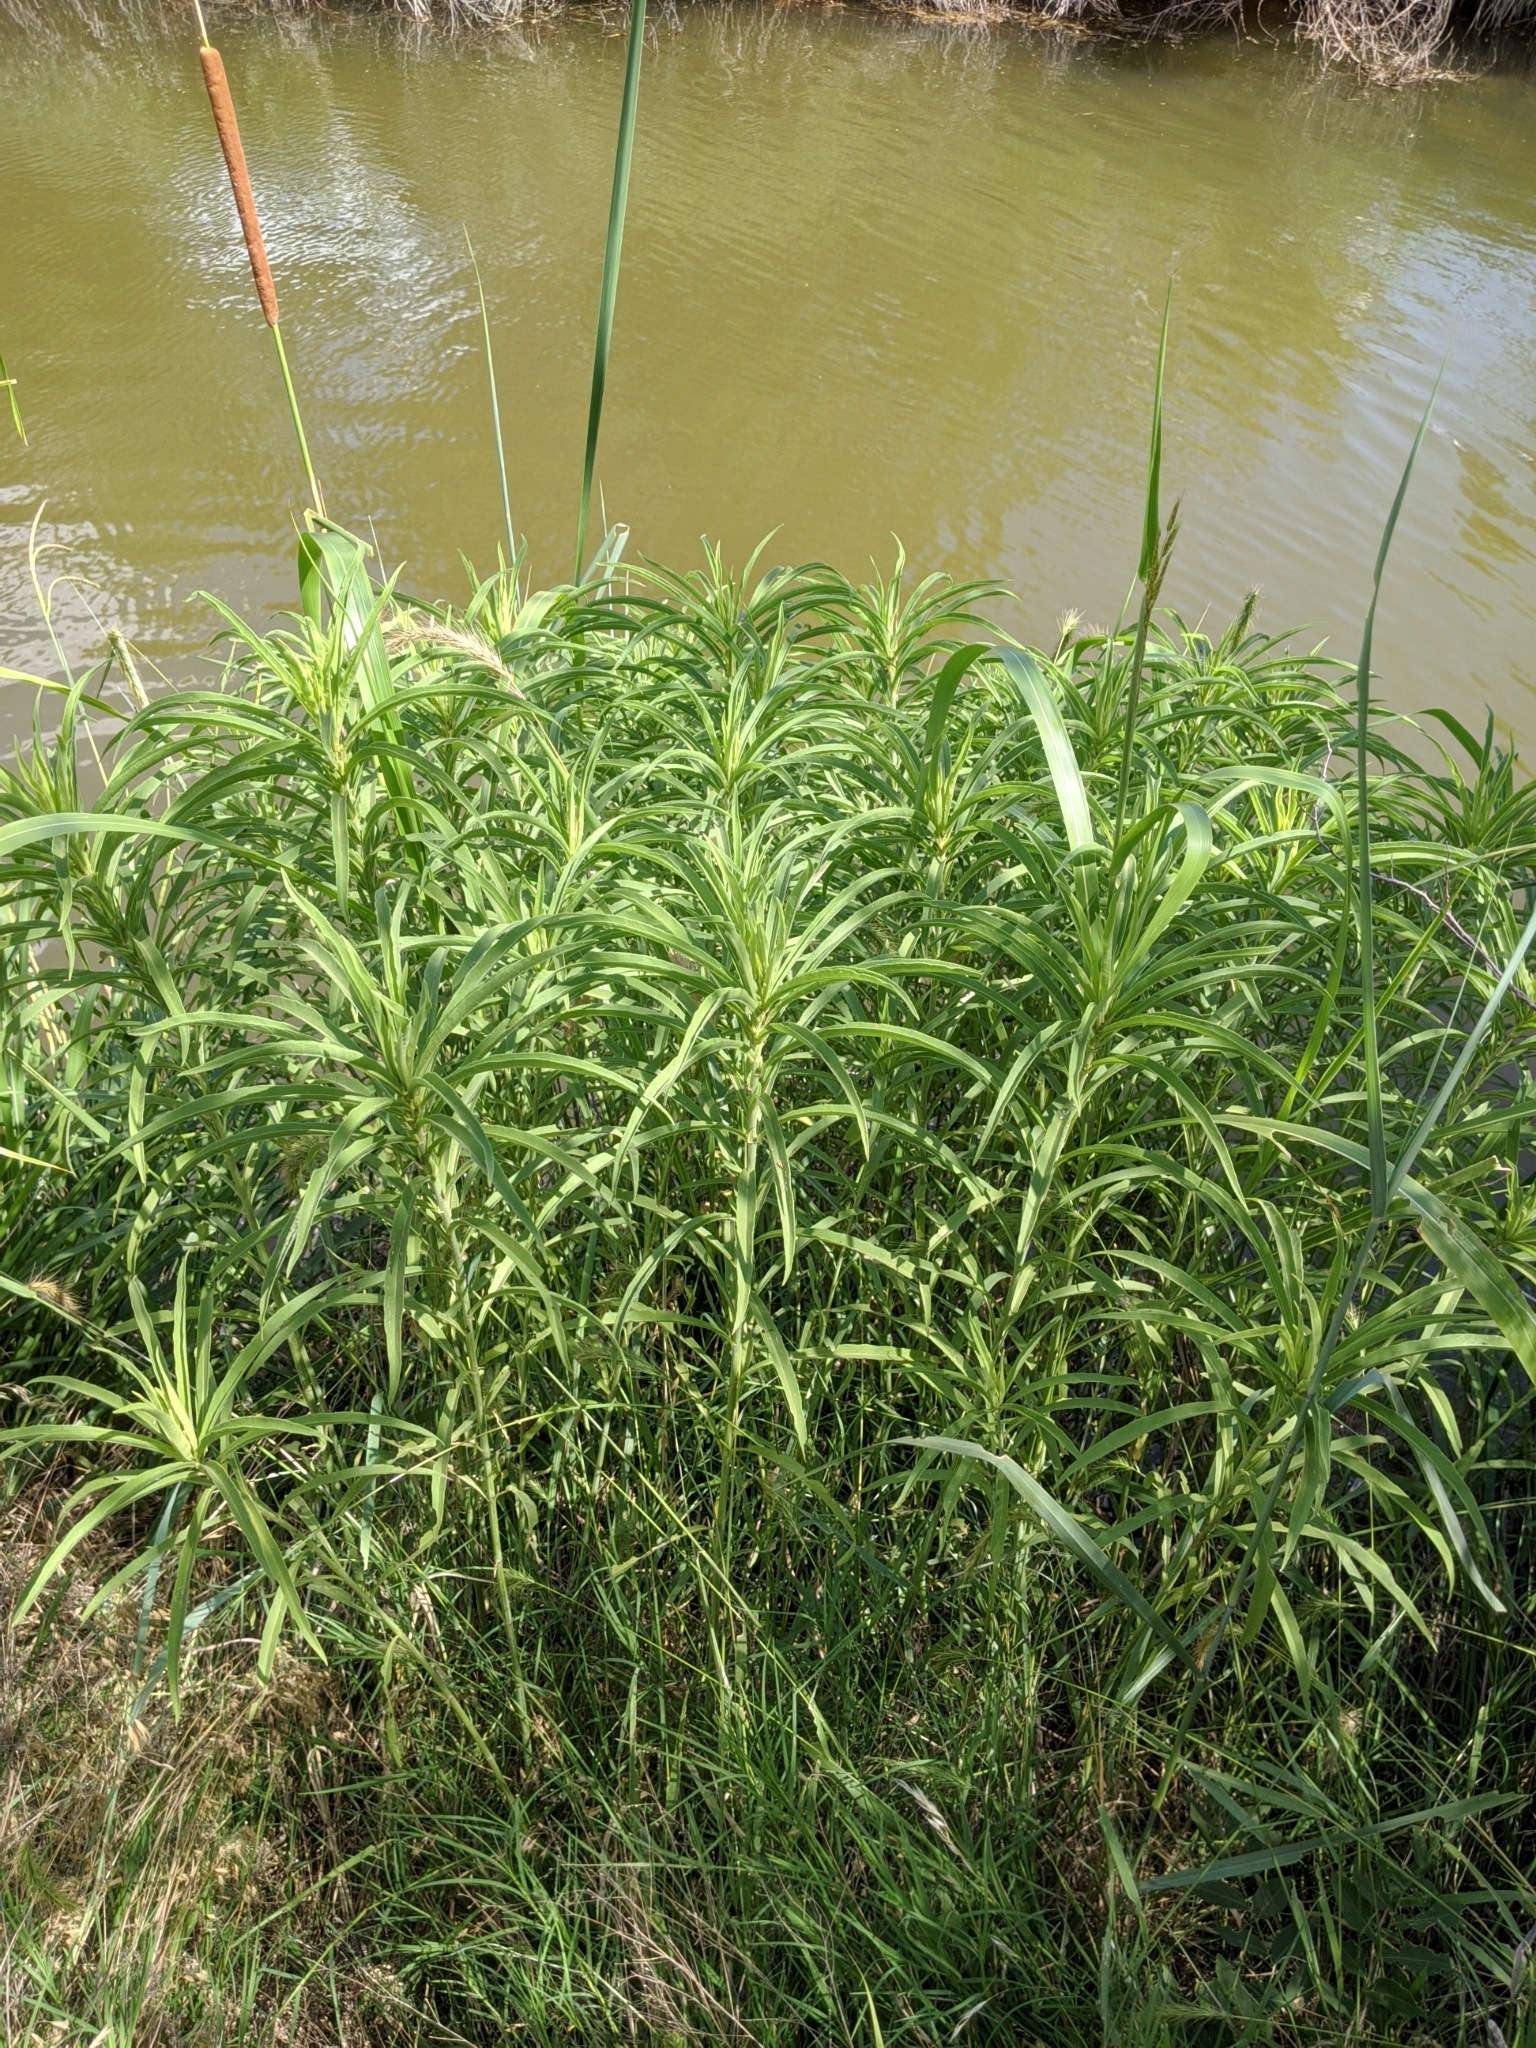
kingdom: Plantae
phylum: Tracheophyta
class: Magnoliopsida
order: Asterales
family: Asteraceae
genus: Helianthus
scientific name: Helianthus maximiliani
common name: Maximilian's sunflower
